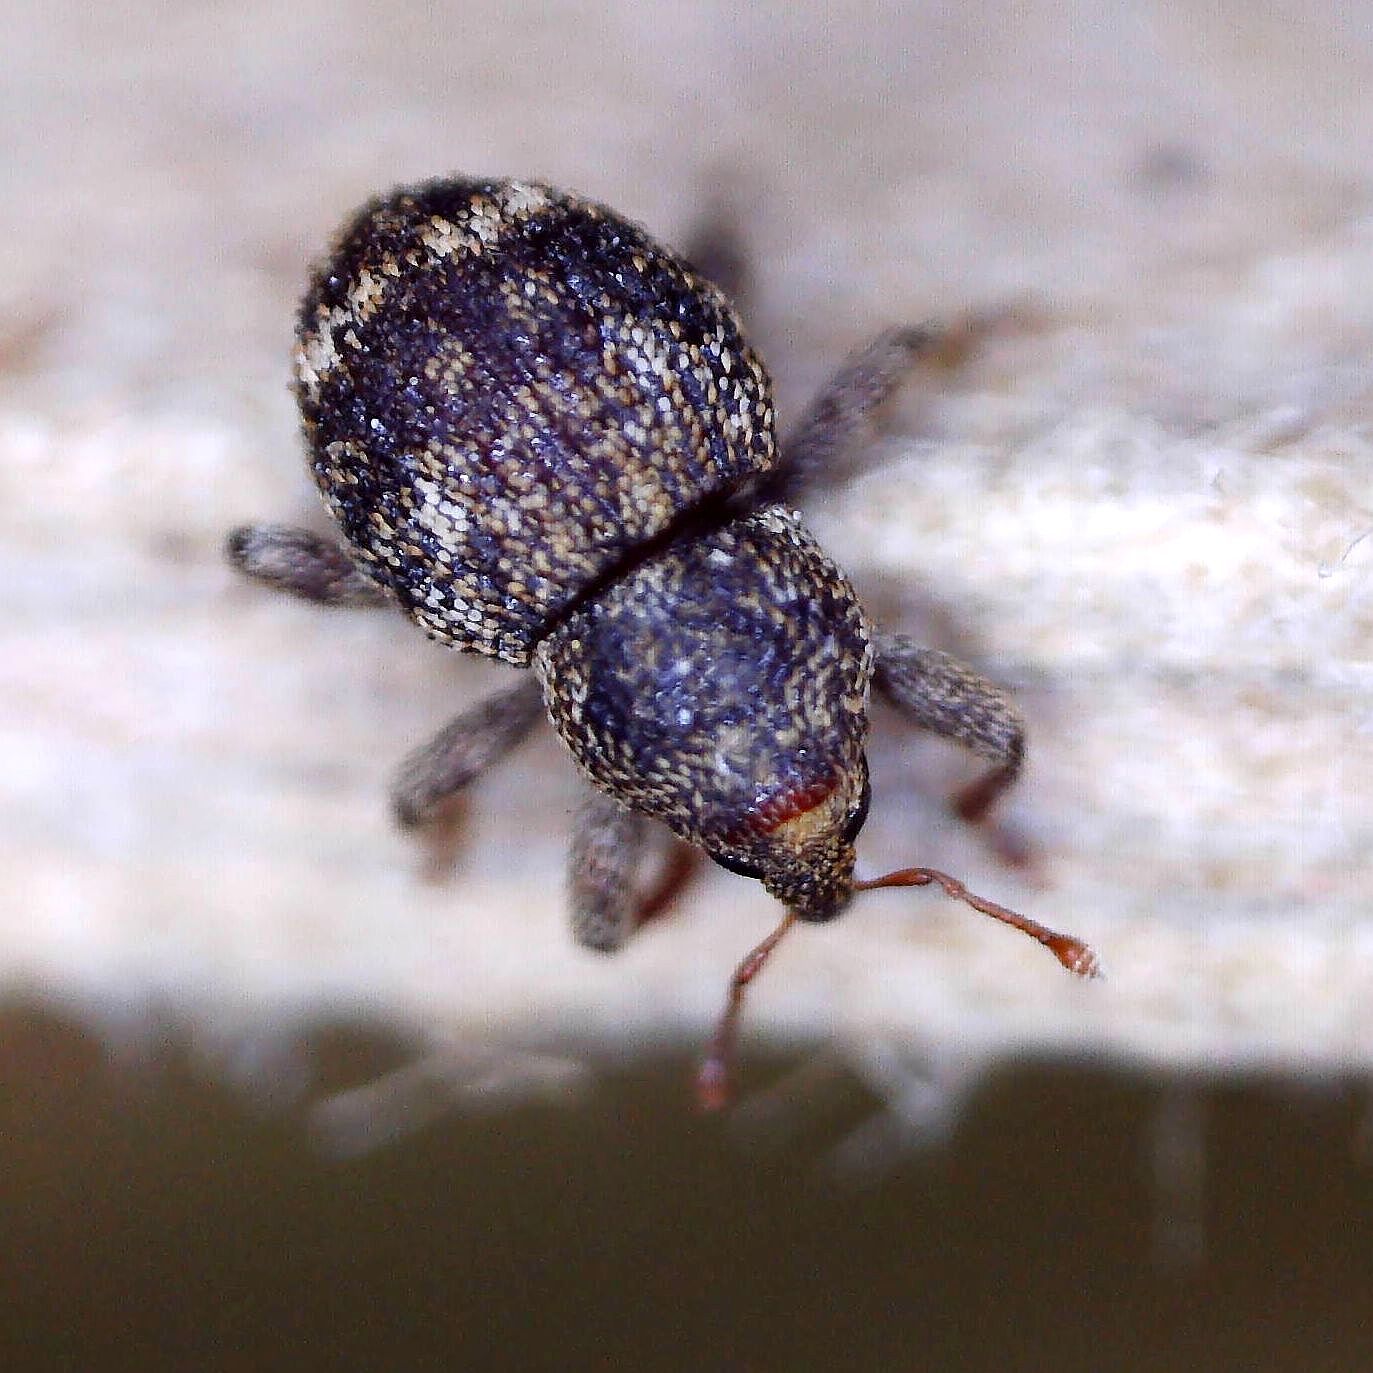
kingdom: Animalia
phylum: Arthropoda
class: Insecta
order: Coleoptera
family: Curculionidae
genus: Acalles
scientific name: Acalles ptinoides
